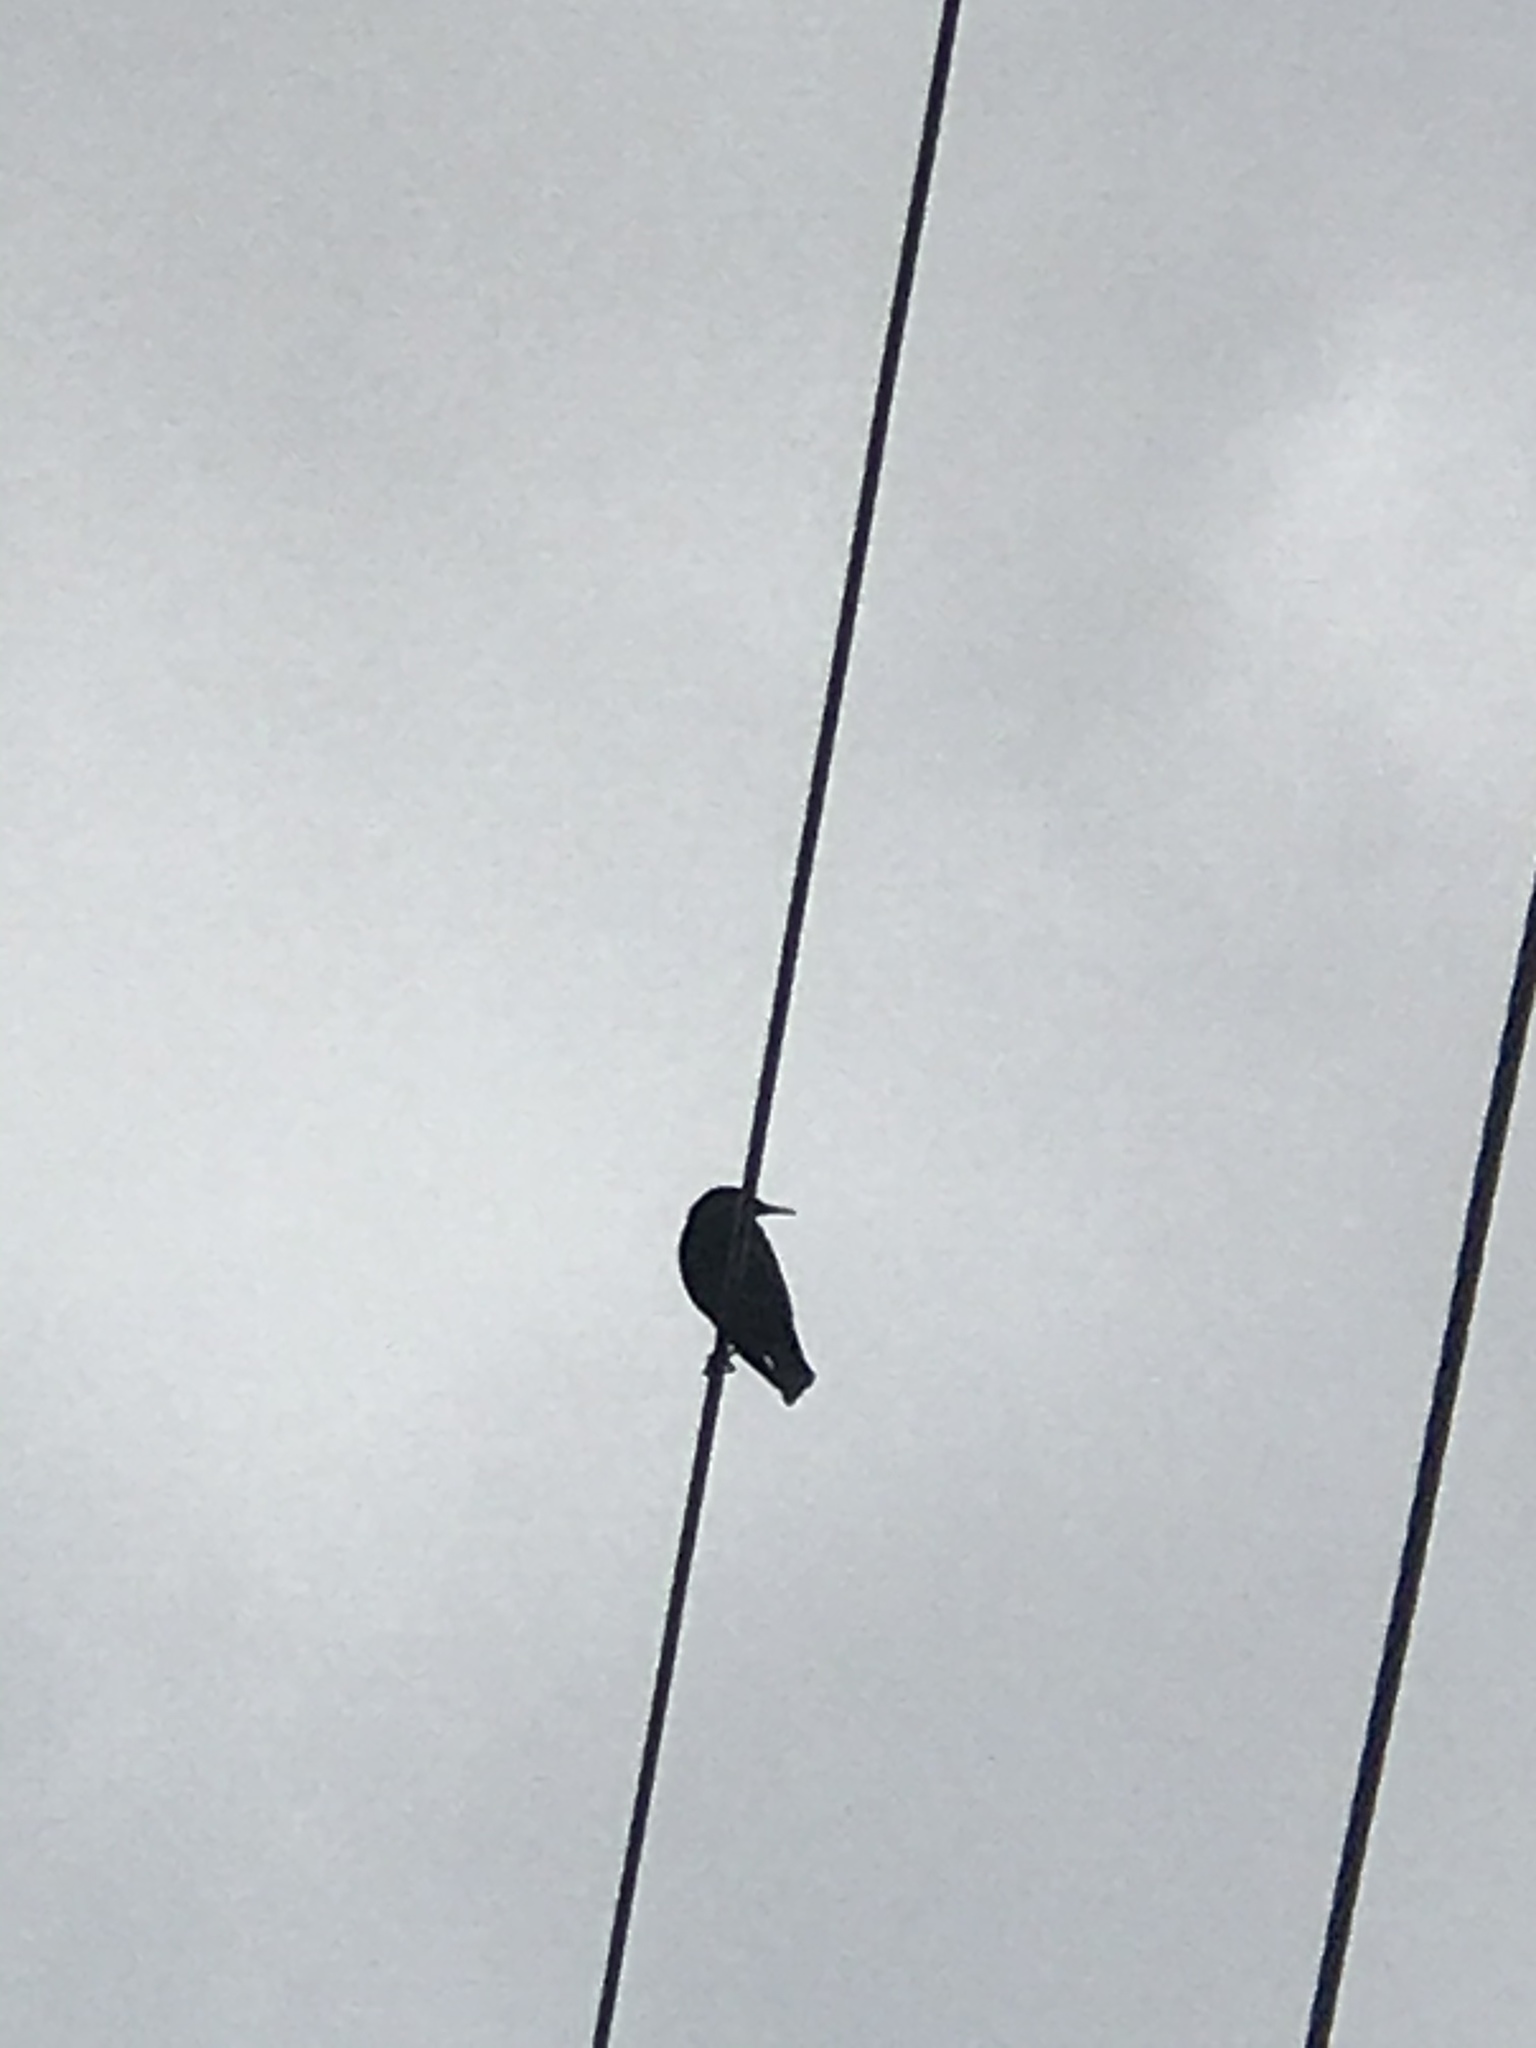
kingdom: Animalia
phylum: Chordata
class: Aves
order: Passeriformes
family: Sturnidae
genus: Sturnus
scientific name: Sturnus vulgaris
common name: Common starling
